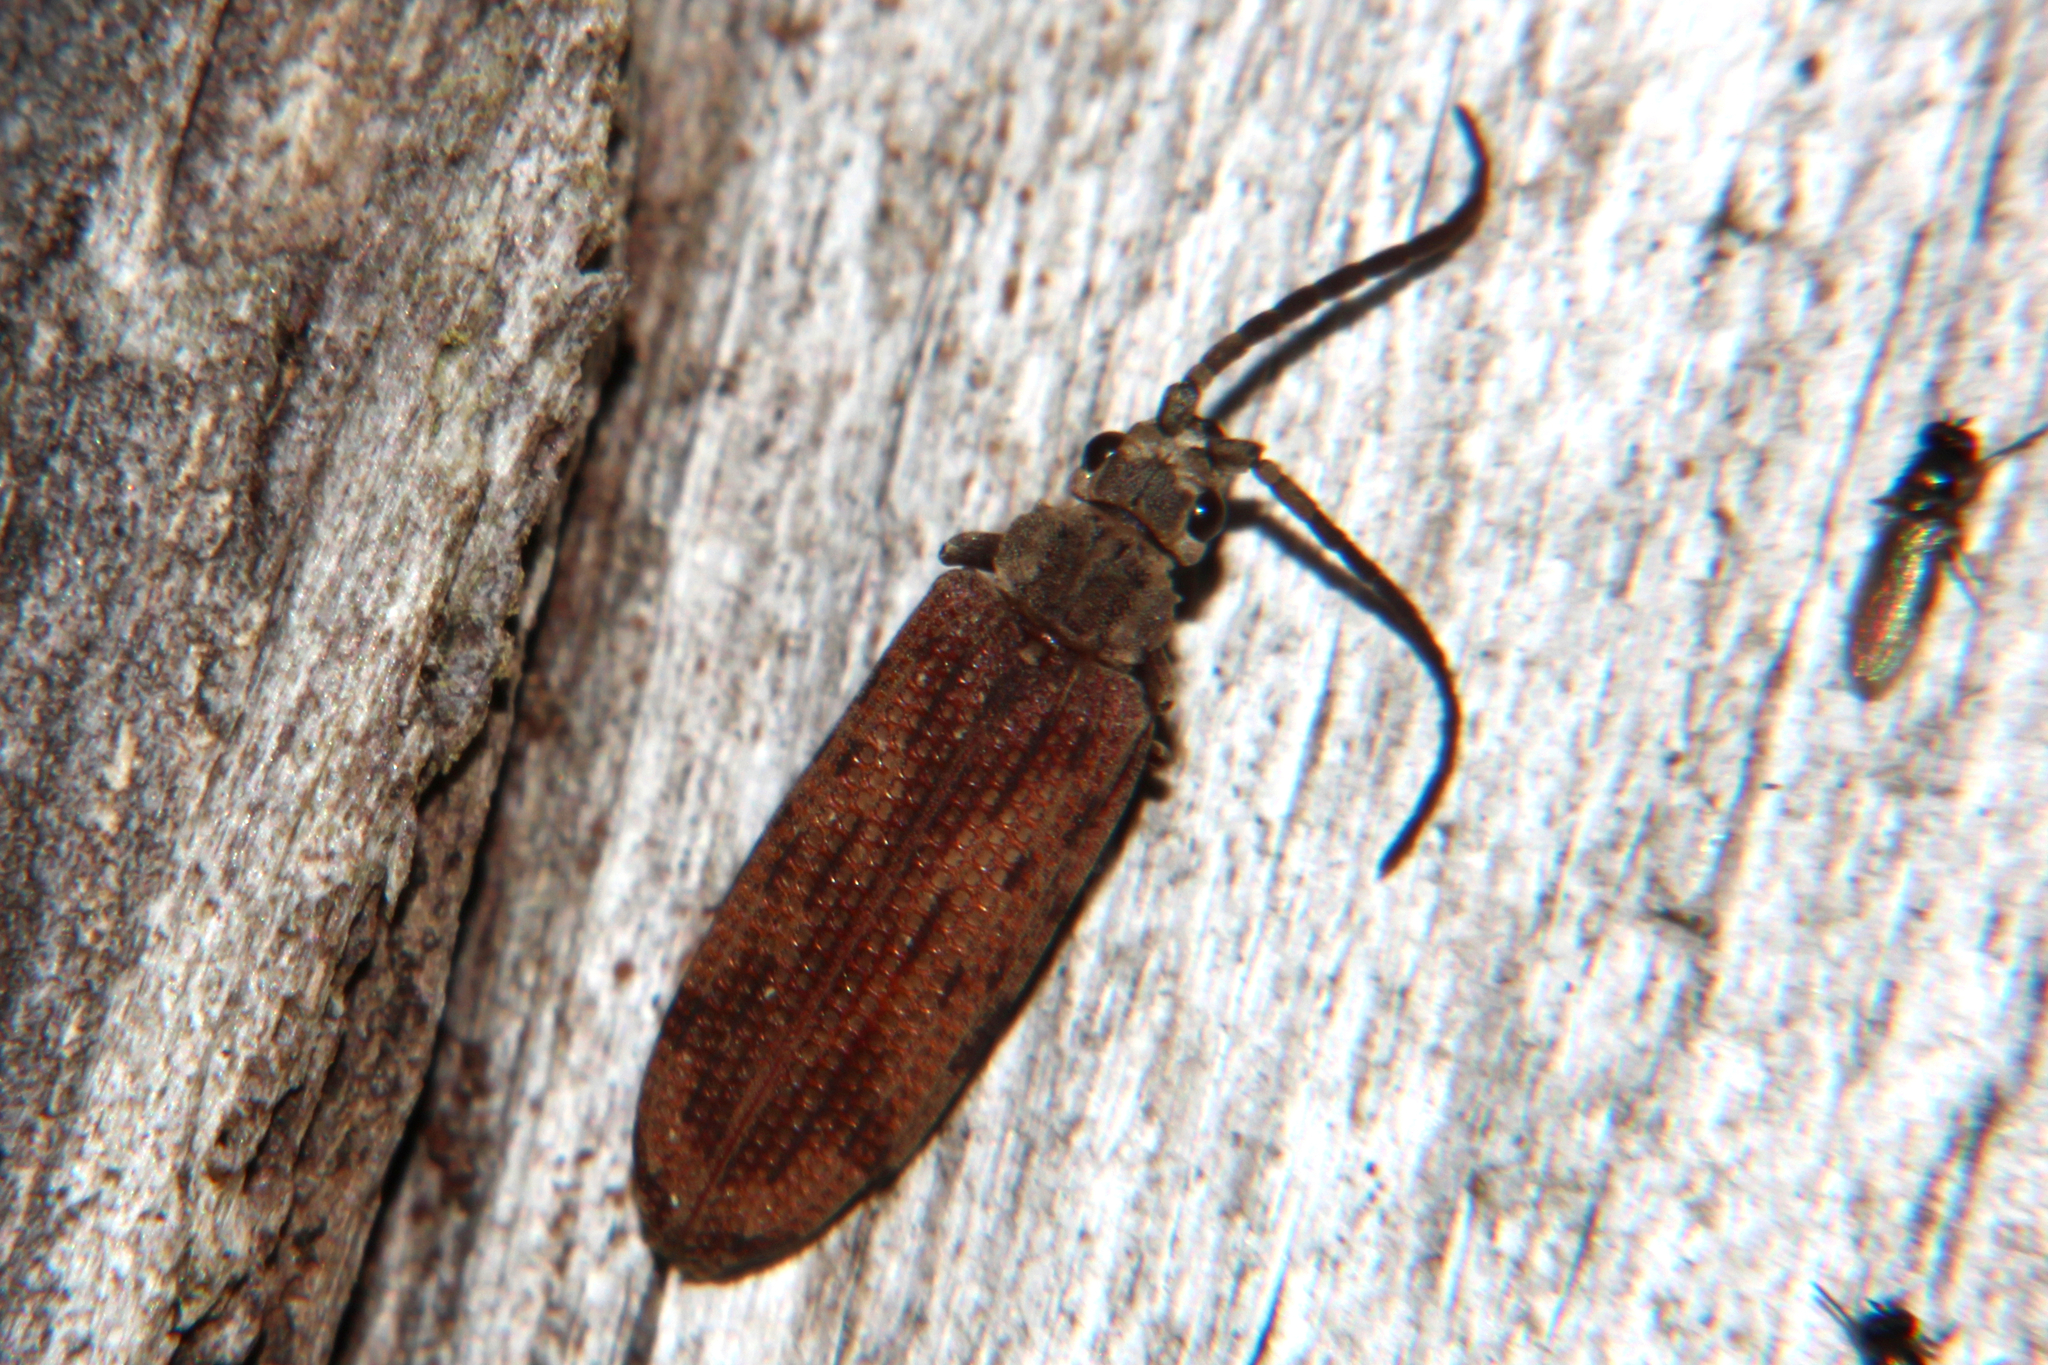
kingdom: Animalia
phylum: Arthropoda
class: Insecta
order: Coleoptera
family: Cupedidae
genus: Distocupes
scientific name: Distocupes varians
